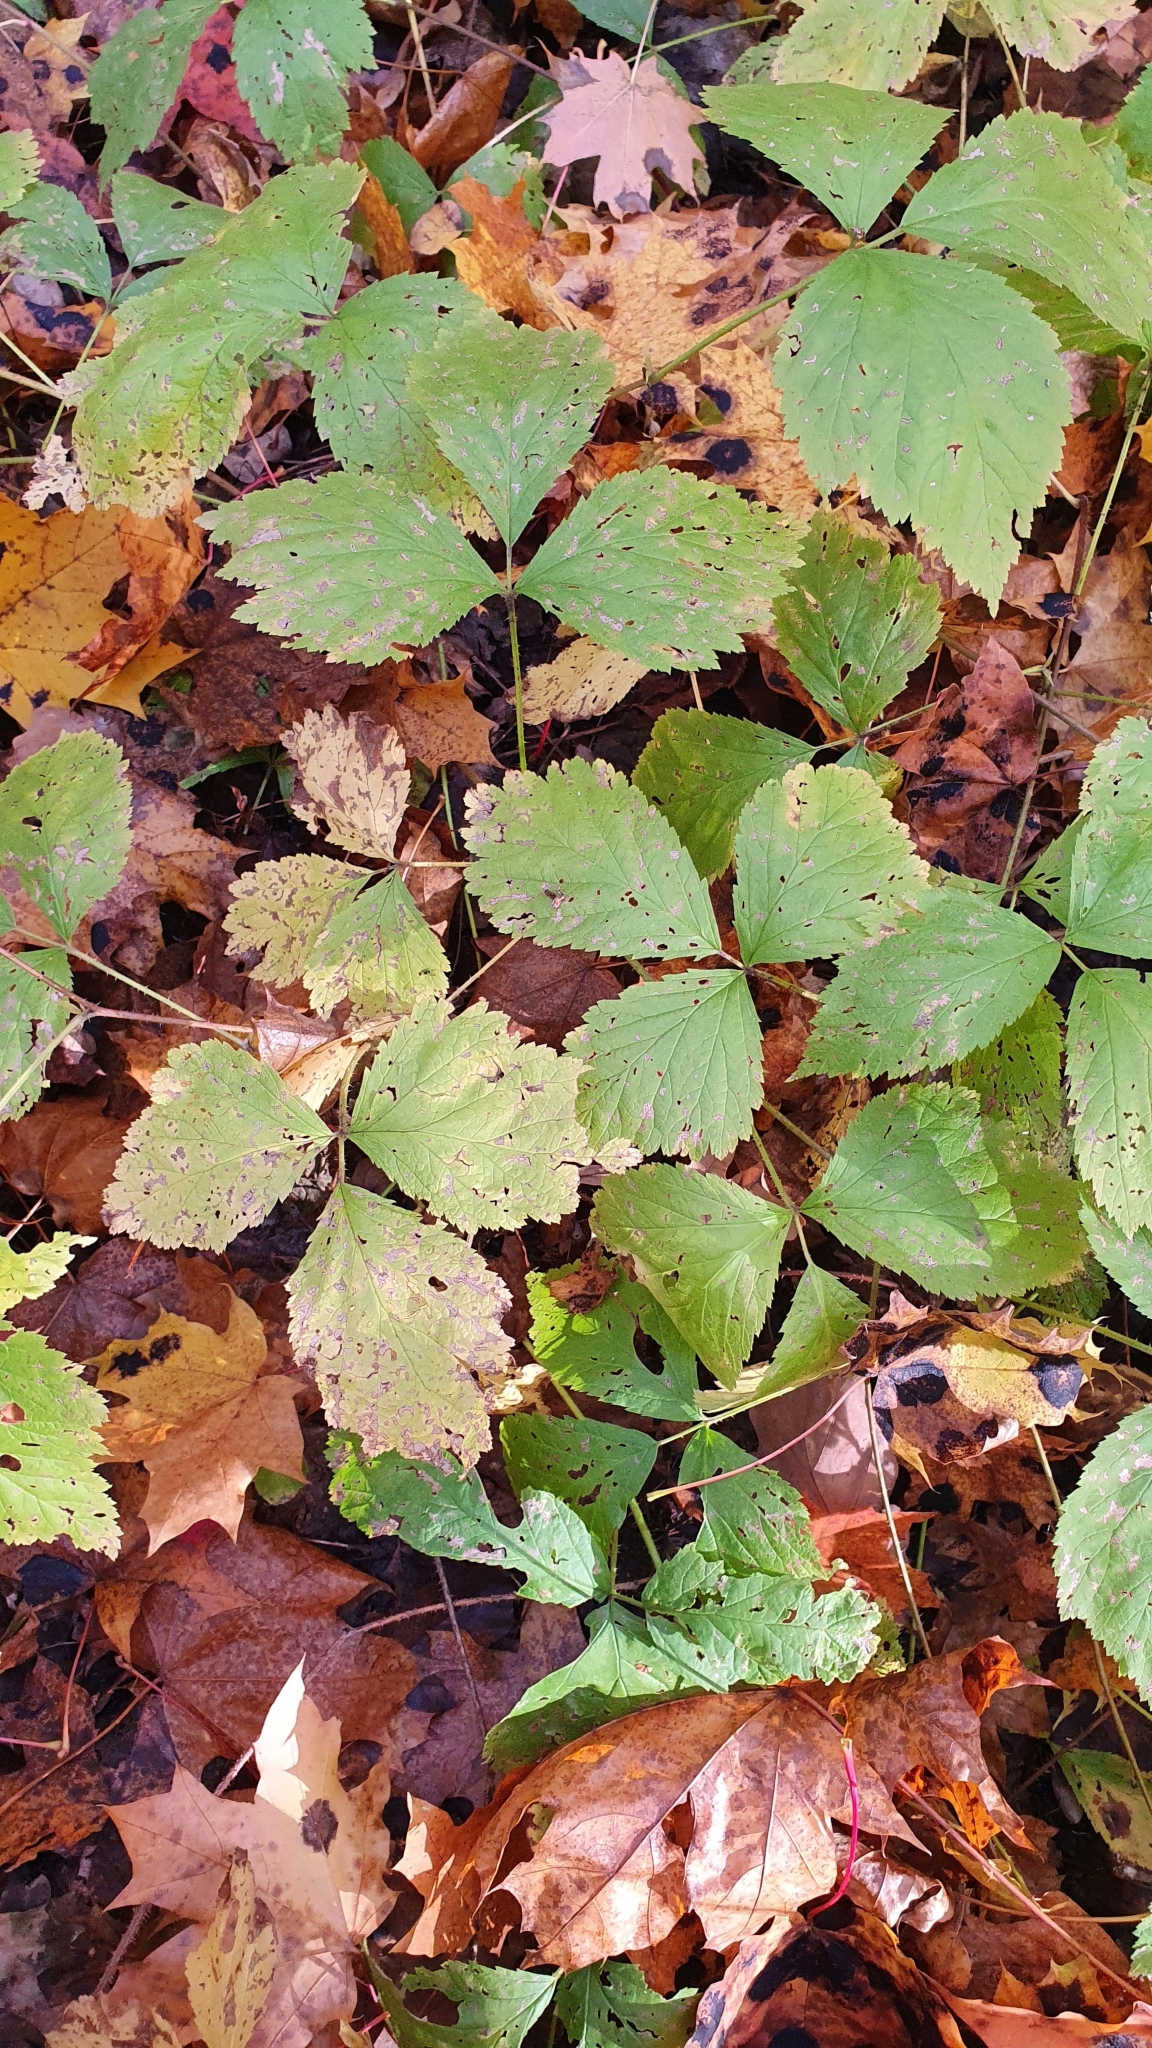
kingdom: Plantae
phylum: Tracheophyta
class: Magnoliopsida
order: Rosales
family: Rosaceae
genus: Rubus
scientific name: Rubus saxatilis
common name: Stone bramble
